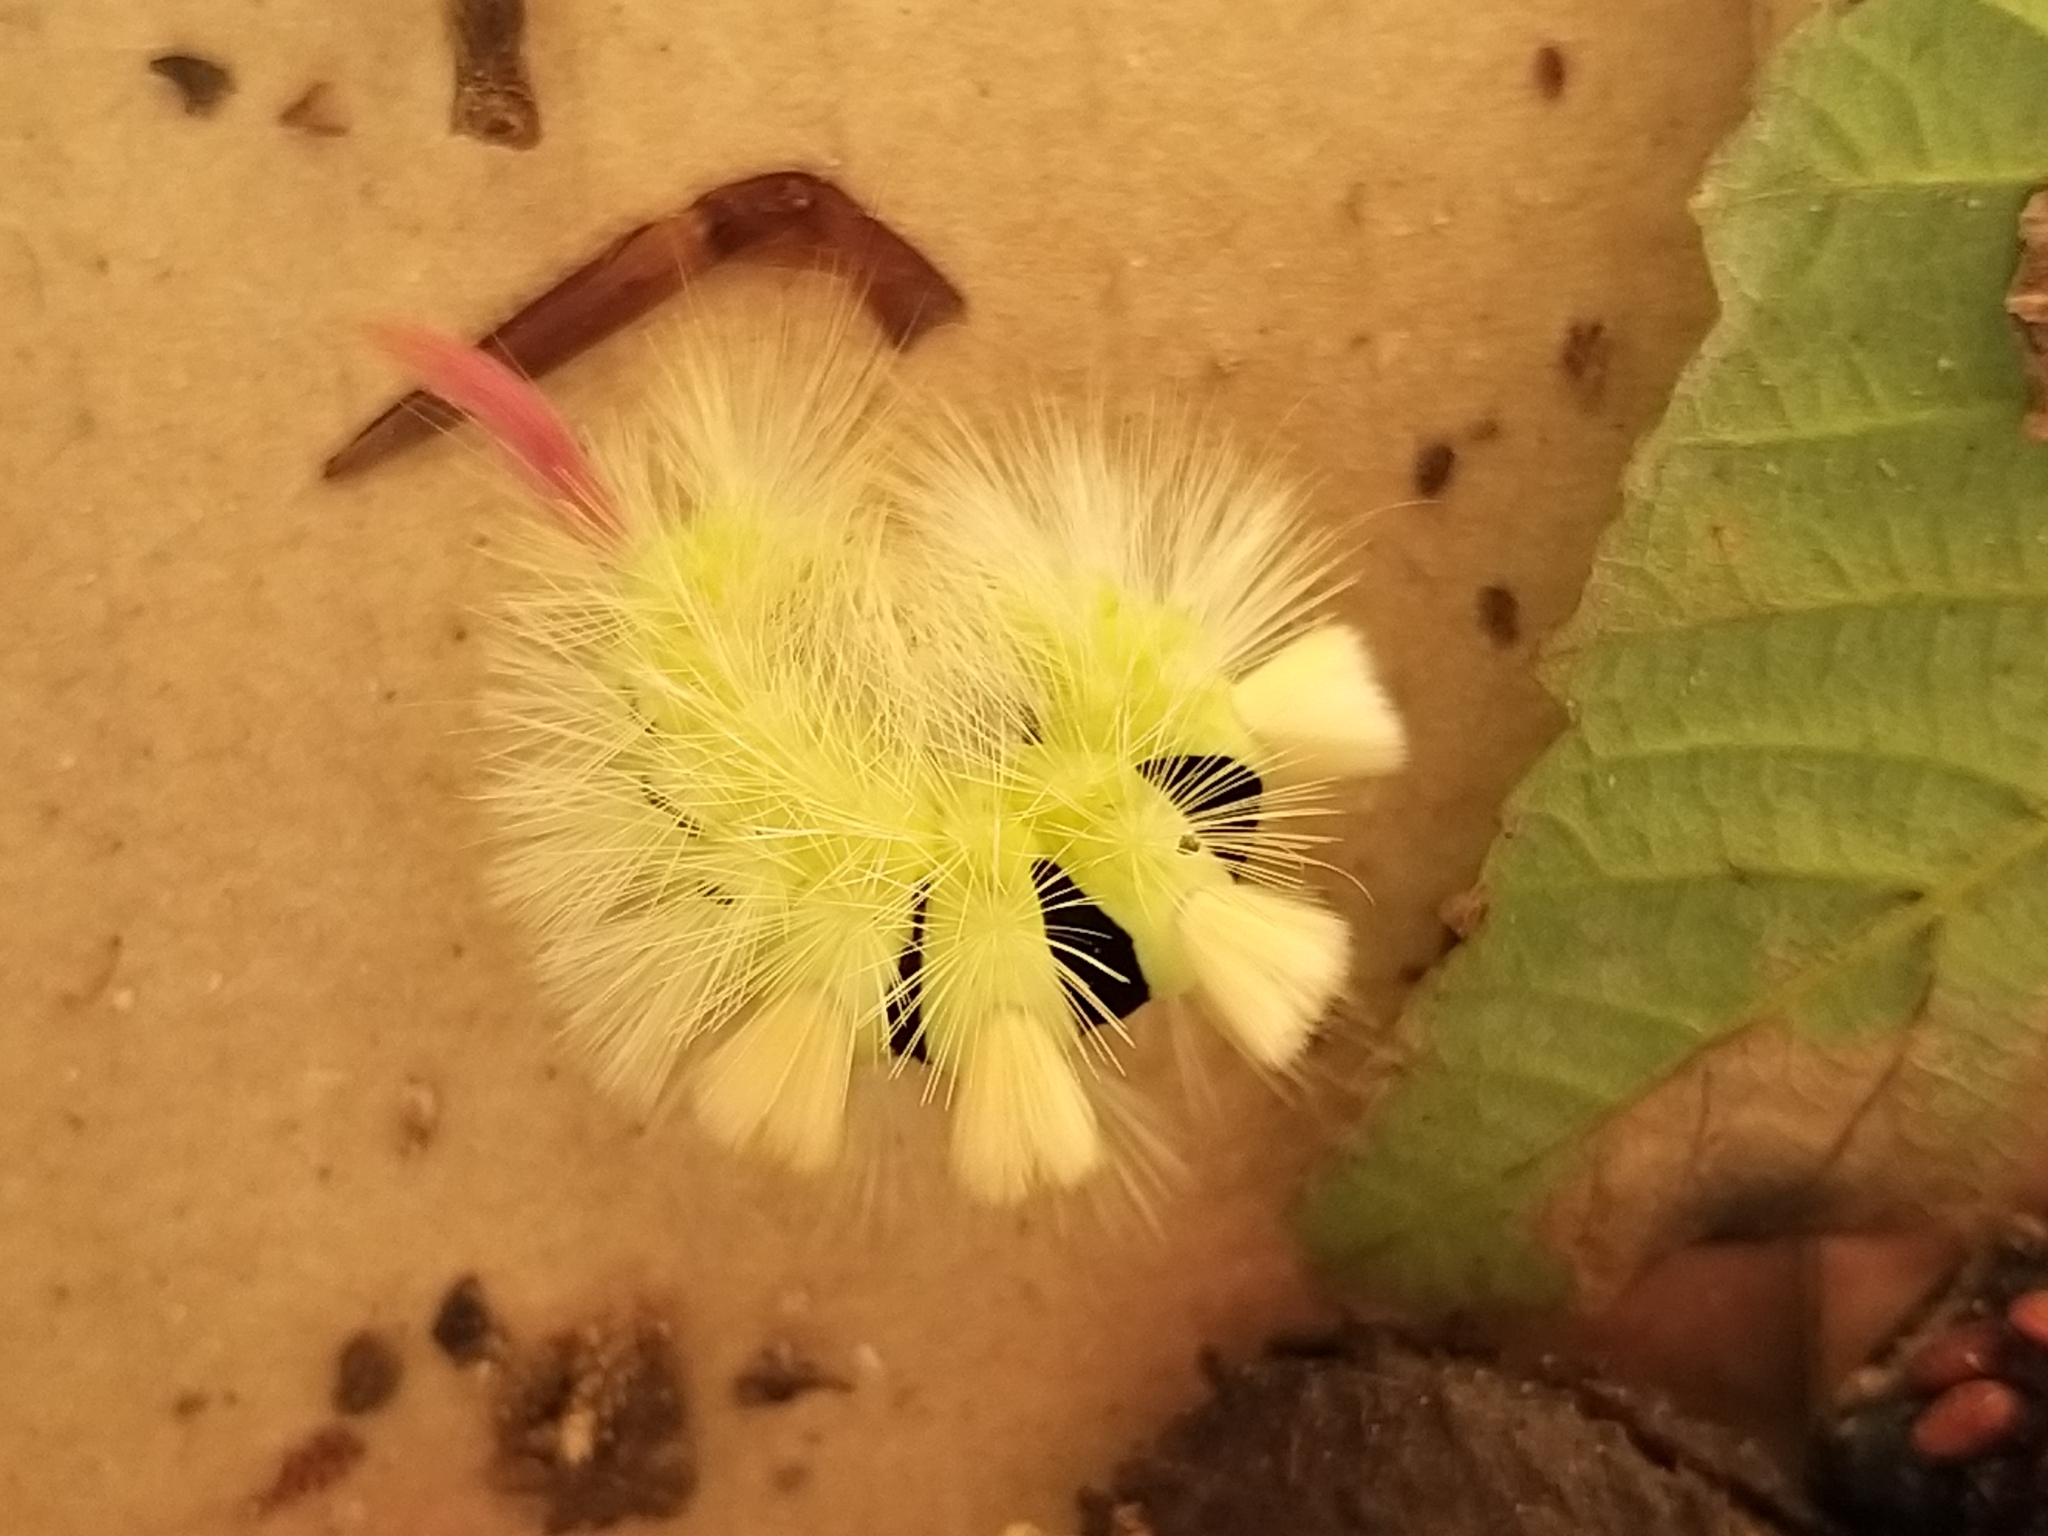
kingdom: Animalia
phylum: Arthropoda
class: Insecta
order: Lepidoptera
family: Erebidae
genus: Calliteara
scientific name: Calliteara pudibunda
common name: Pale tussock
